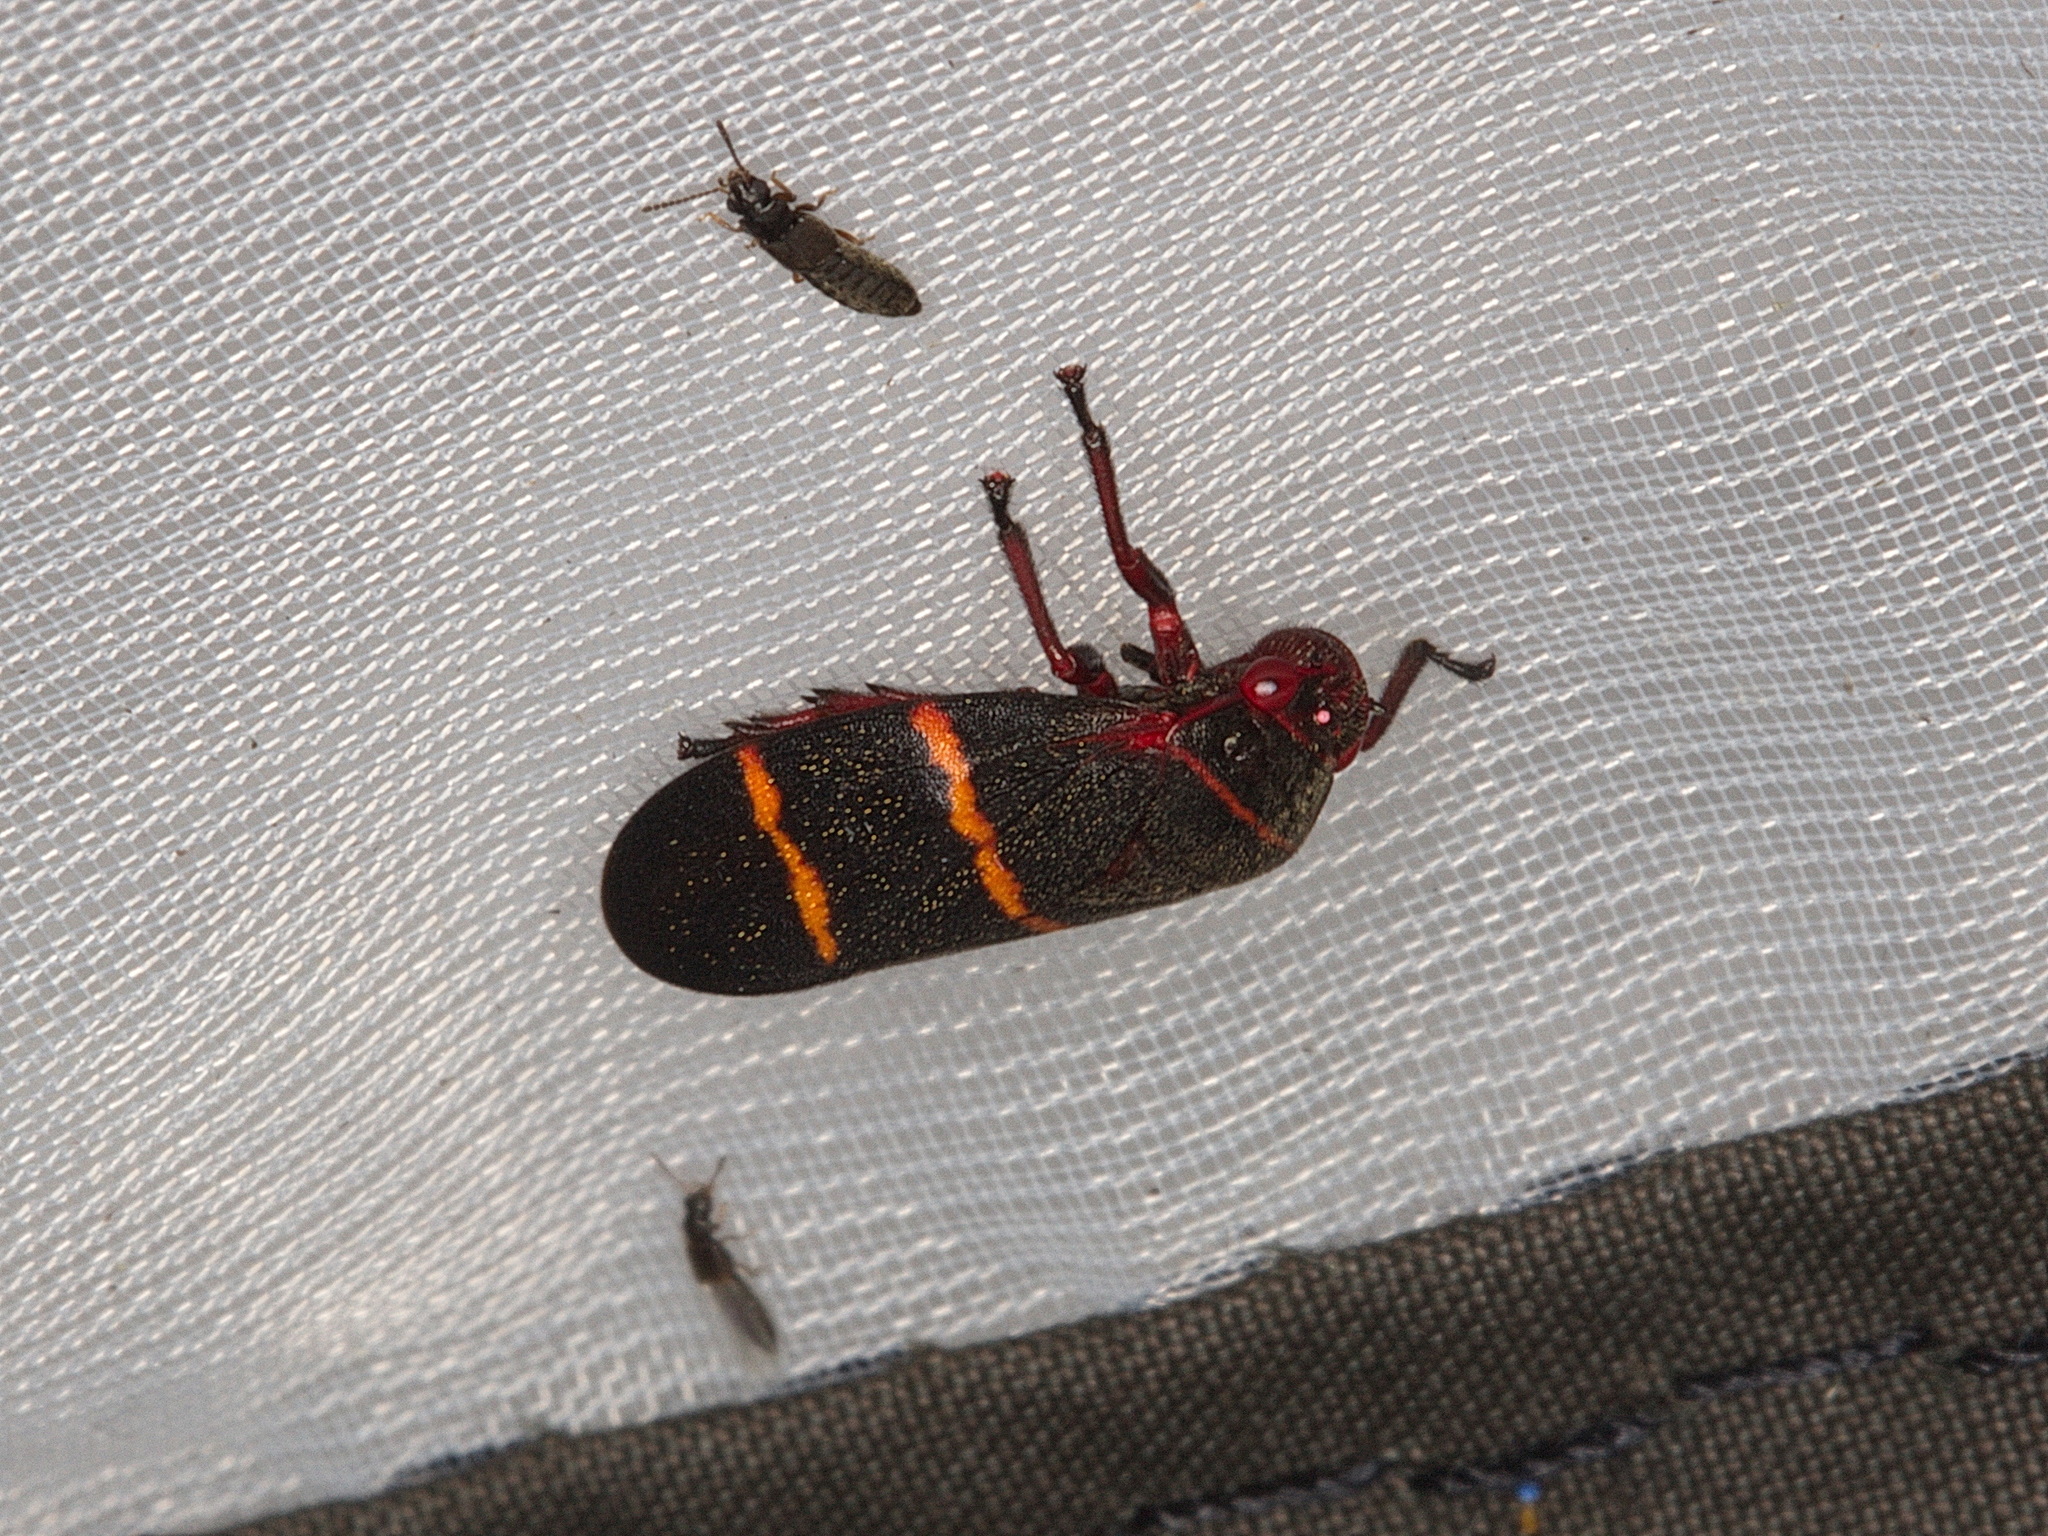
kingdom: Animalia
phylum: Arthropoda
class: Insecta
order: Hemiptera
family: Cercopidae
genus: Prosapia
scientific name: Prosapia bicincta
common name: Twolined spittlebug
